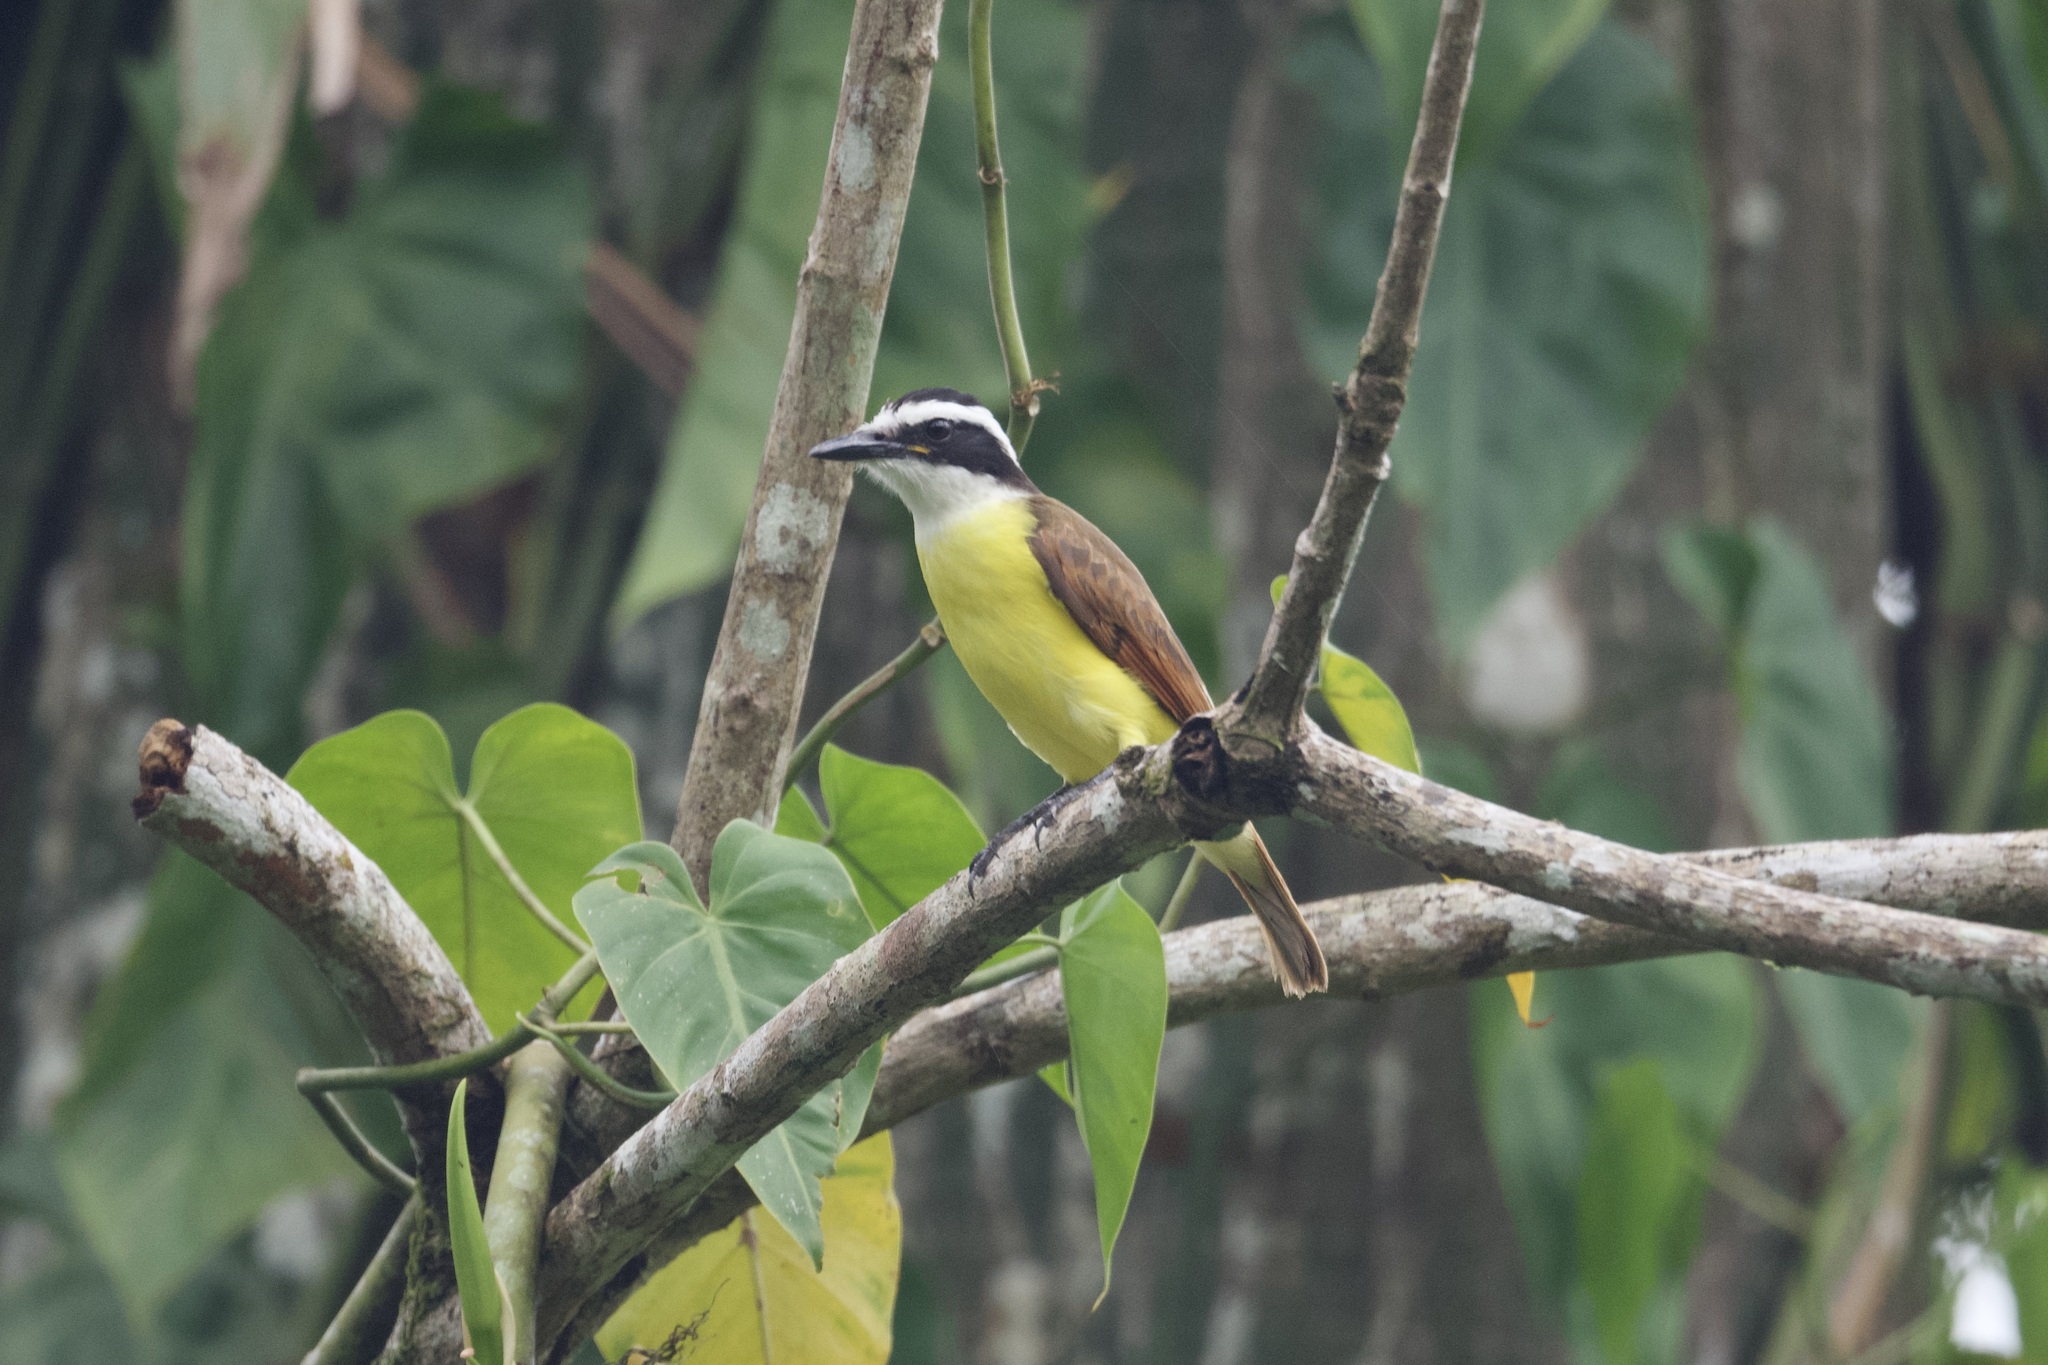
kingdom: Animalia
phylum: Chordata
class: Aves
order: Passeriformes
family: Tyrannidae
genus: Pitangus
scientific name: Pitangus sulphuratus
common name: Great kiskadee
